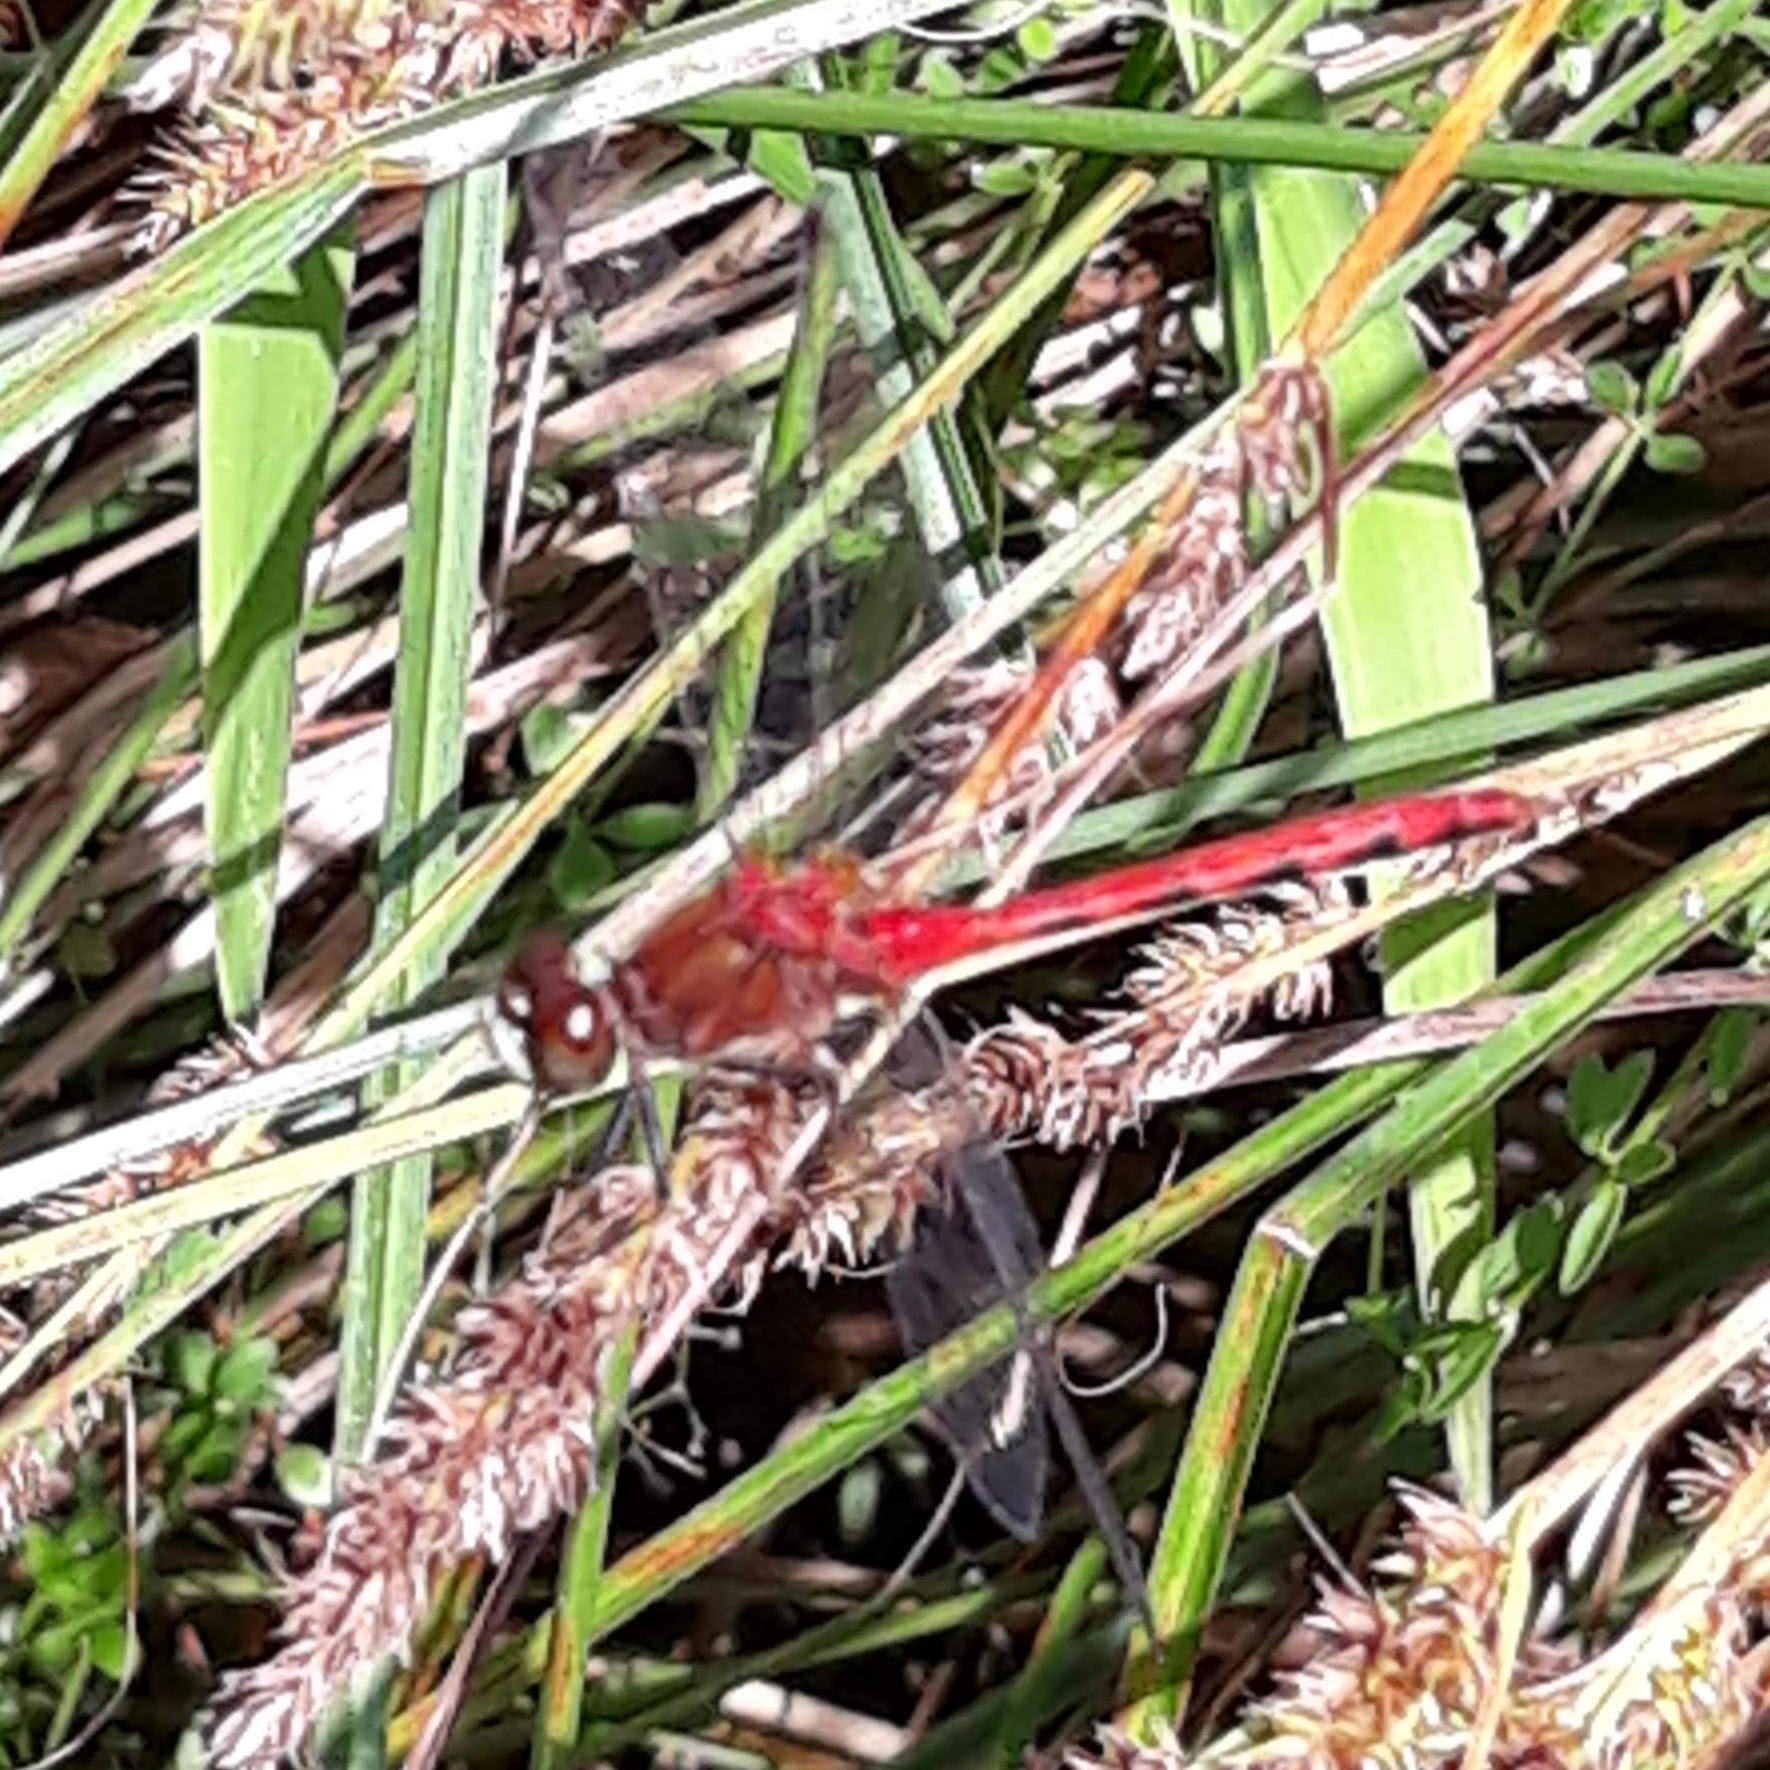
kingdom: Animalia
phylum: Arthropoda
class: Insecta
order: Odonata
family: Libellulidae
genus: Sympetrum
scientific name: Sympetrum obtrusum
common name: White-faced meadowhawk
